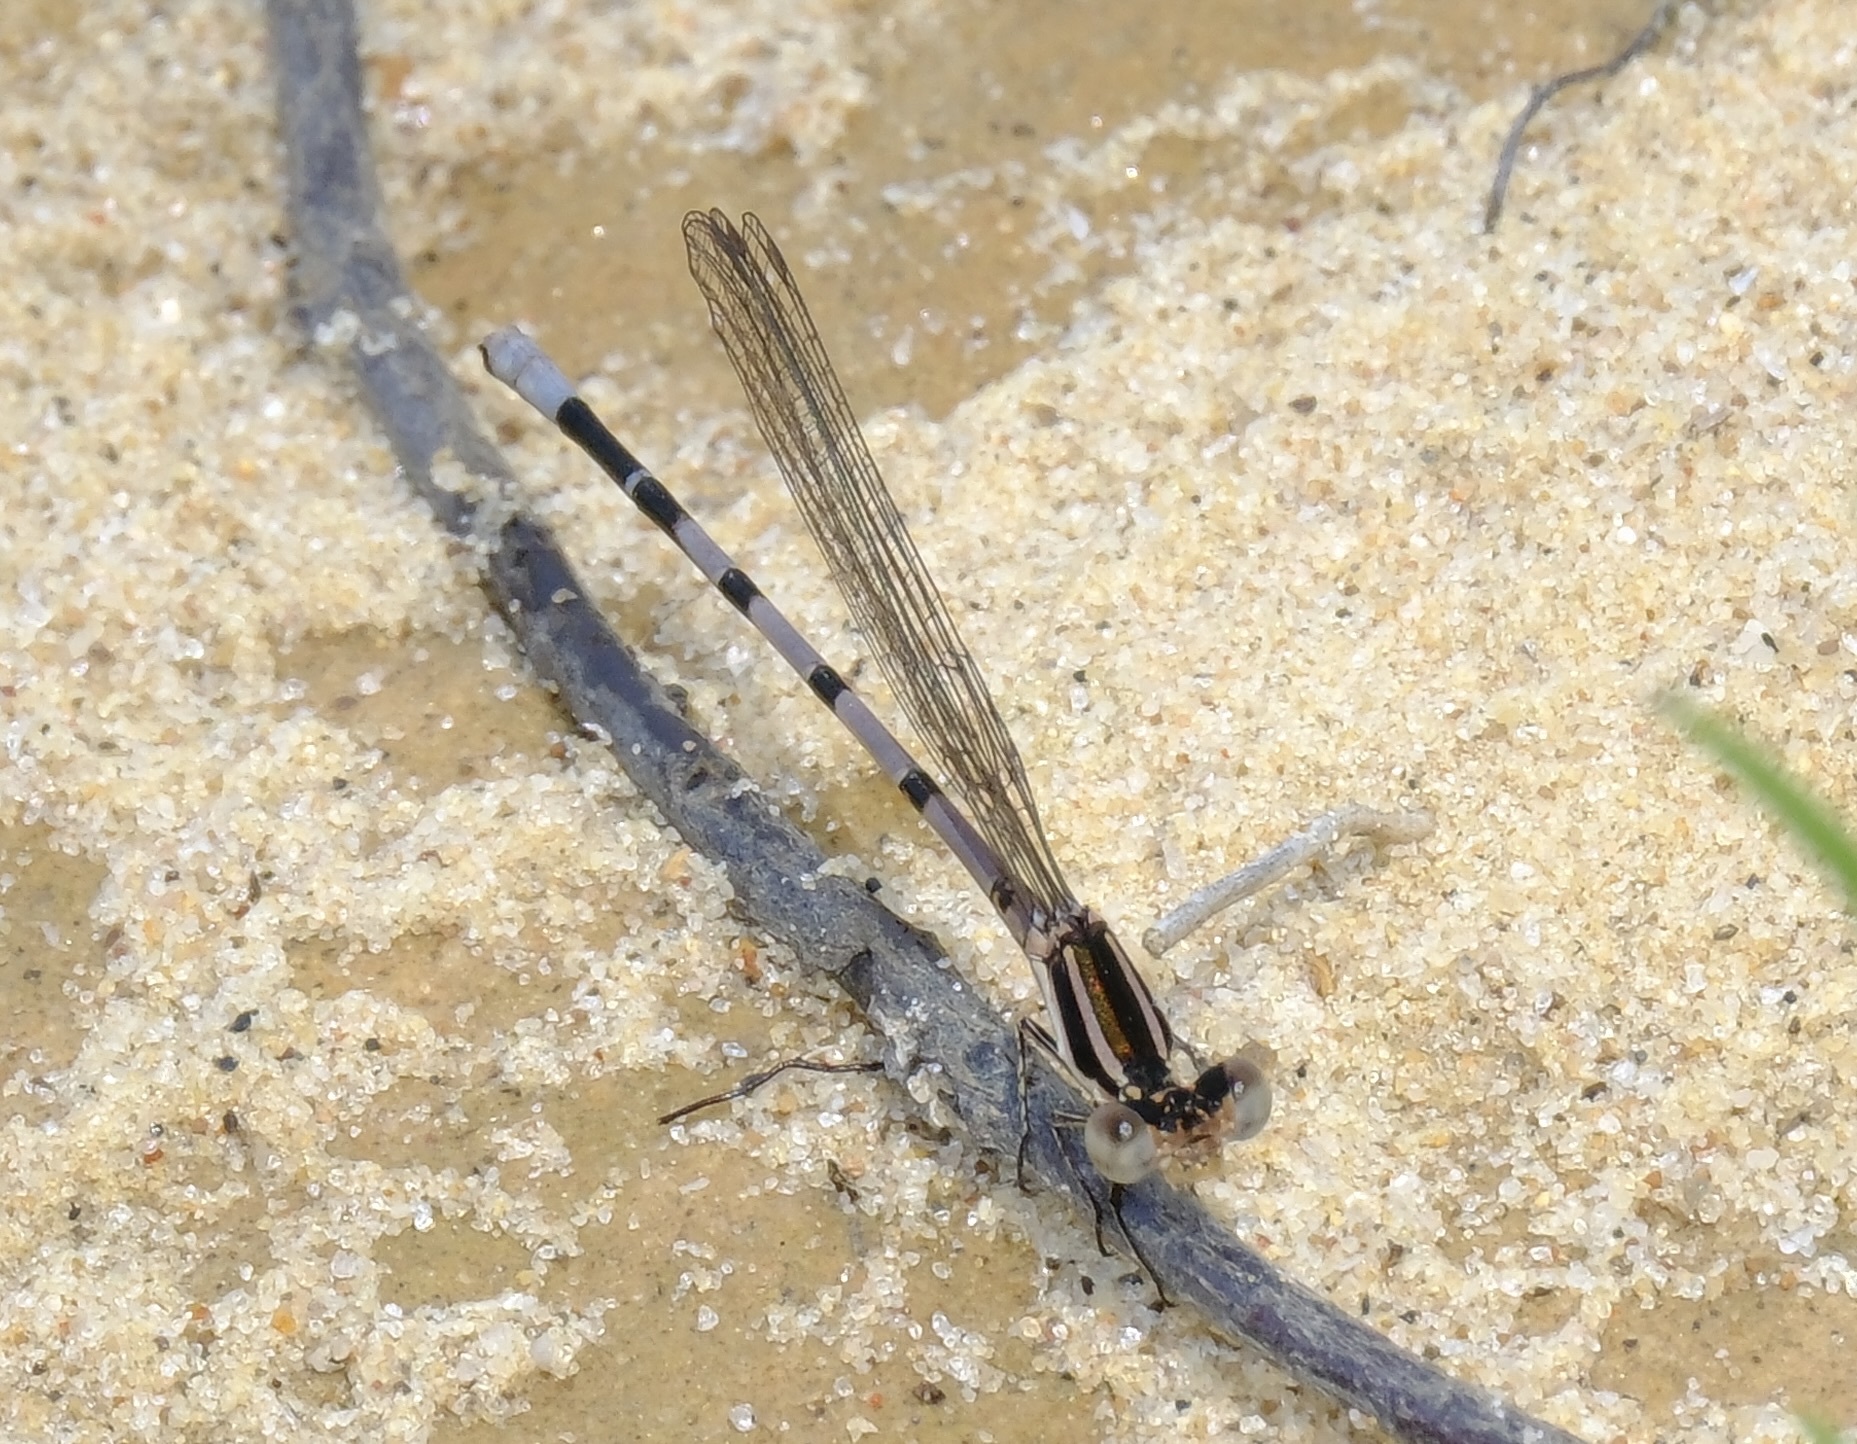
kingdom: Animalia
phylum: Arthropoda
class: Insecta
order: Odonata
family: Coenagrionidae
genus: Argia
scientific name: Argia bipunctulata
